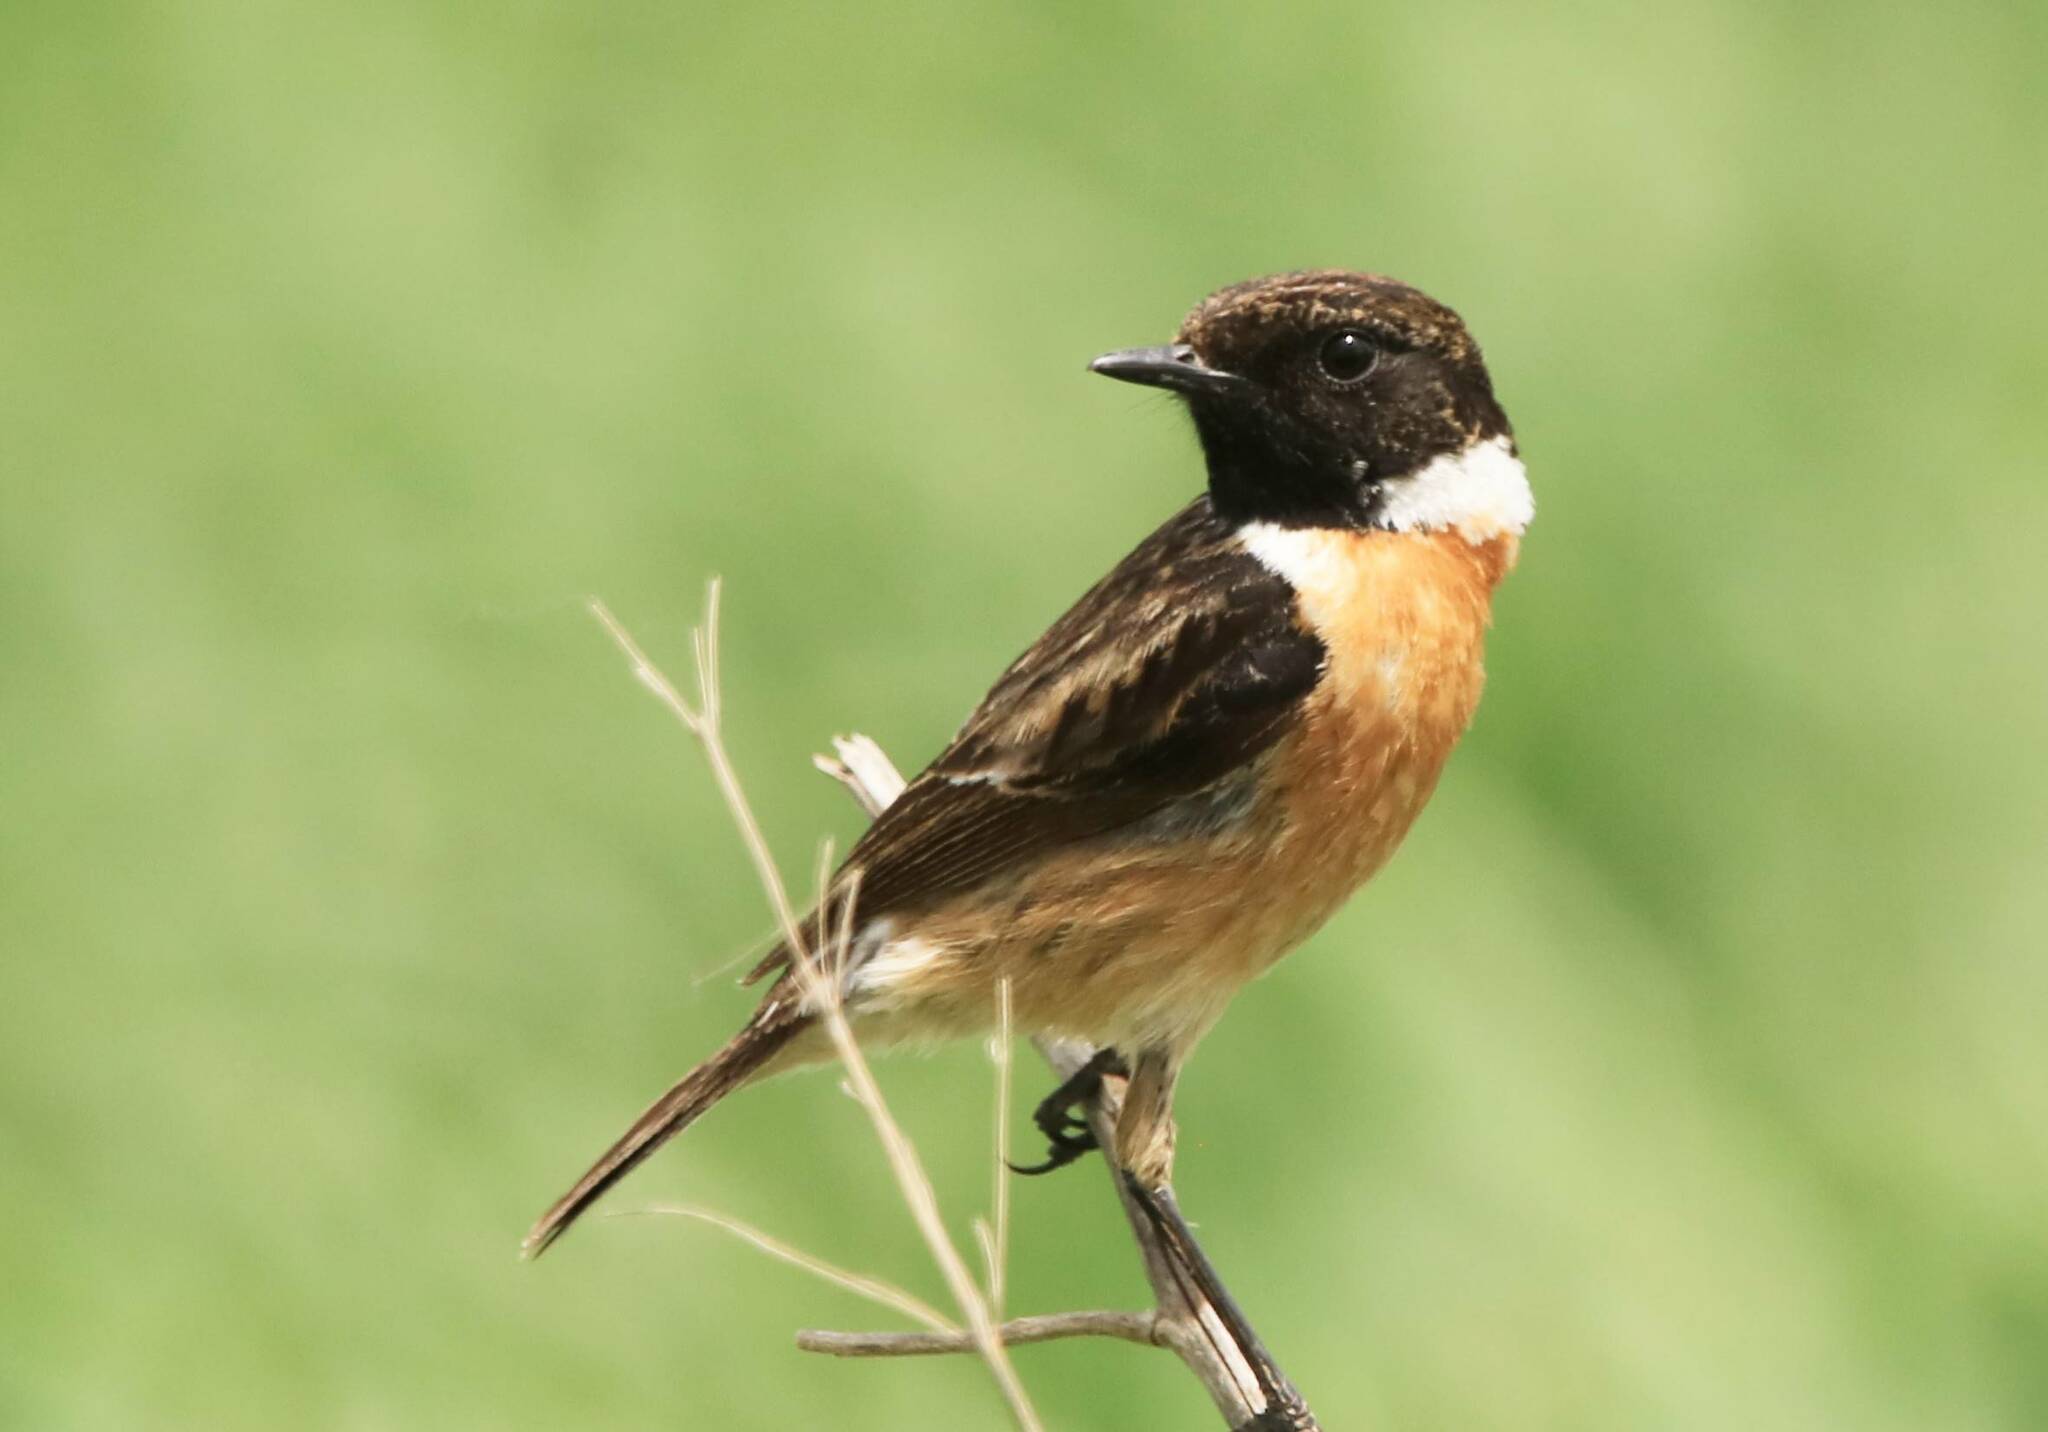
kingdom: Animalia
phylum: Chordata
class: Aves
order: Passeriformes
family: Muscicapidae
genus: Saxicola
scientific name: Saxicola rubicola
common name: European stonechat
